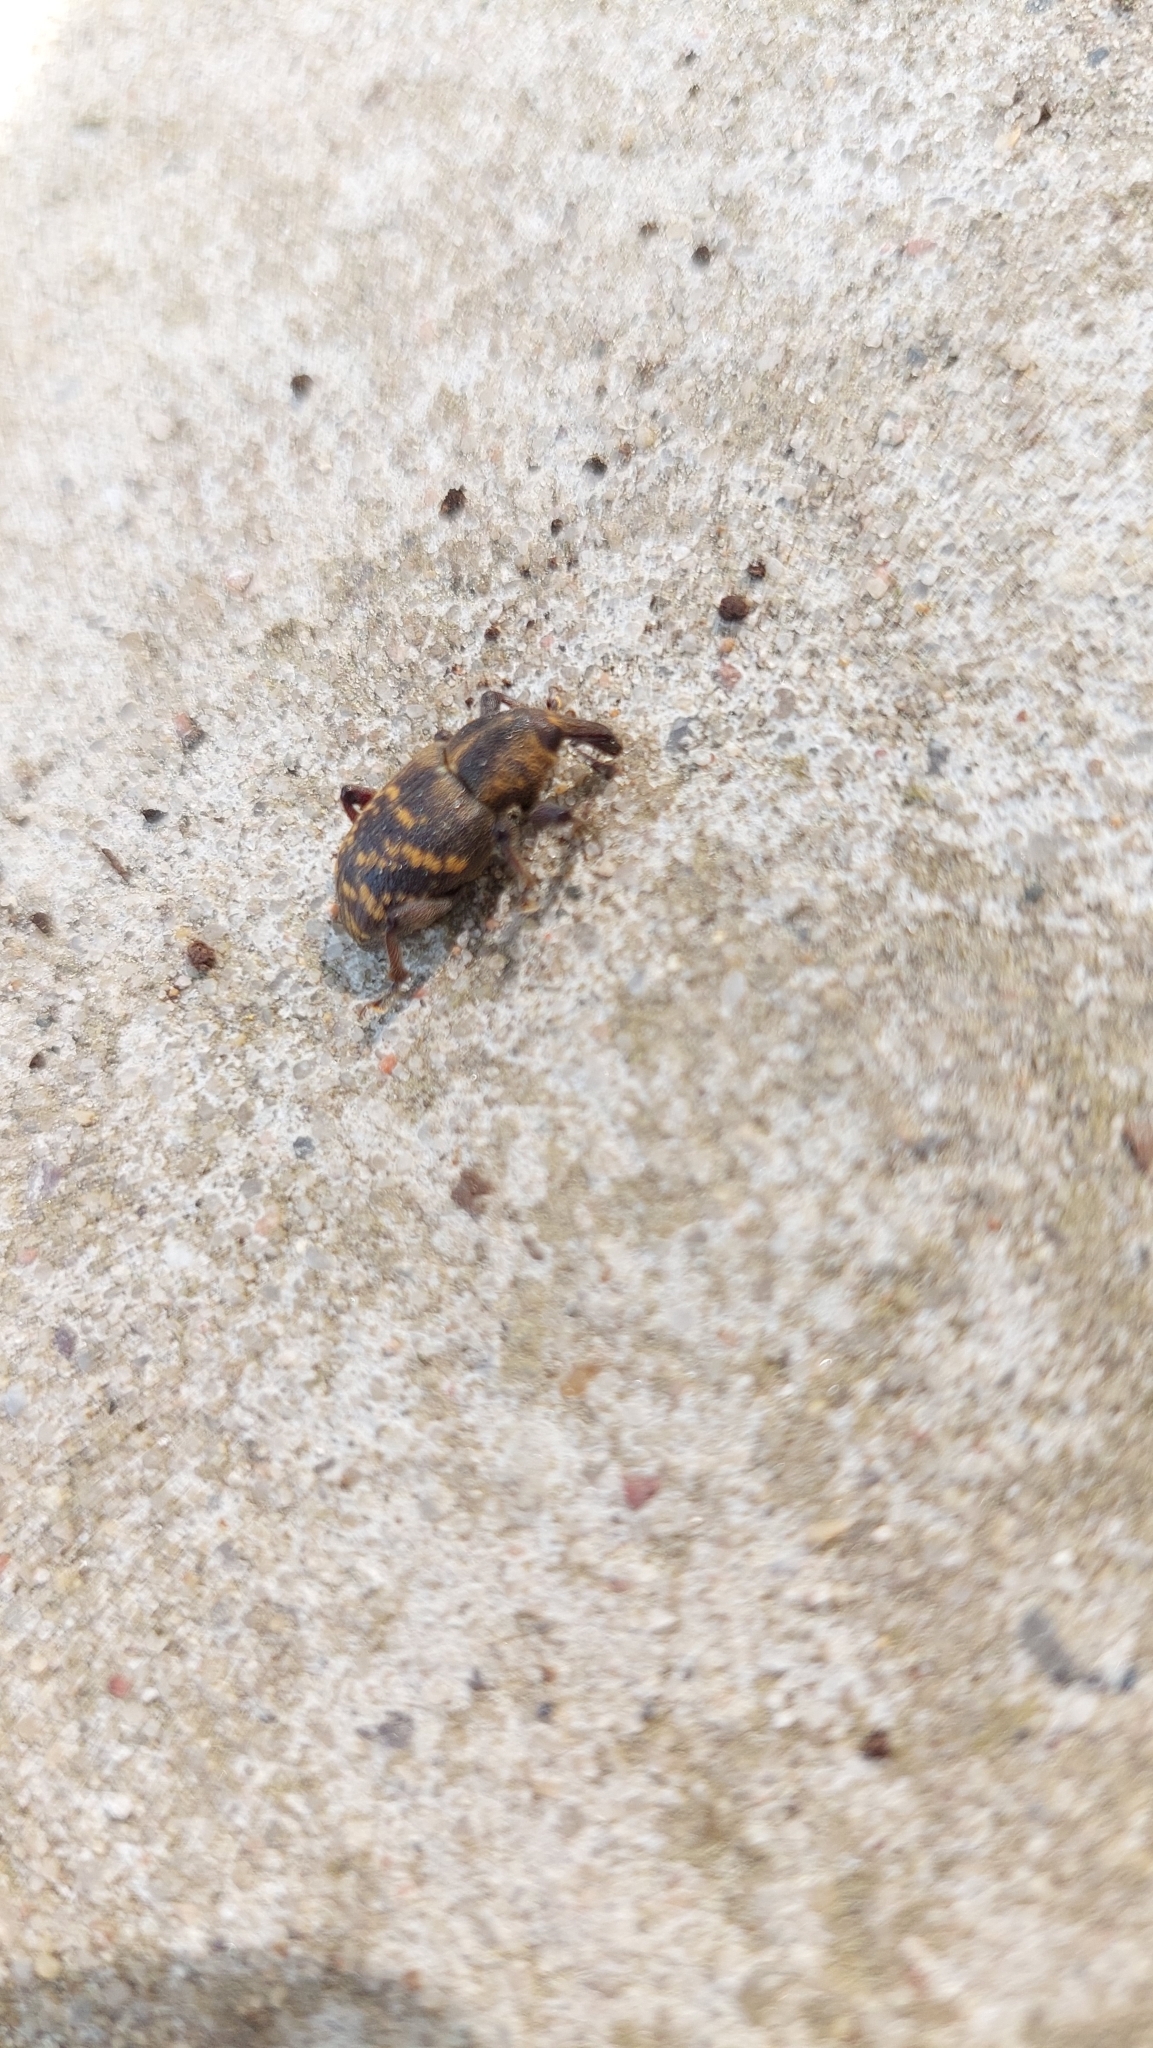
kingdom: Animalia
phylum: Arthropoda
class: Insecta
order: Coleoptera
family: Curculionidae
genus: Hylobius
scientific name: Hylobius abietis
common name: Large pine weevil
